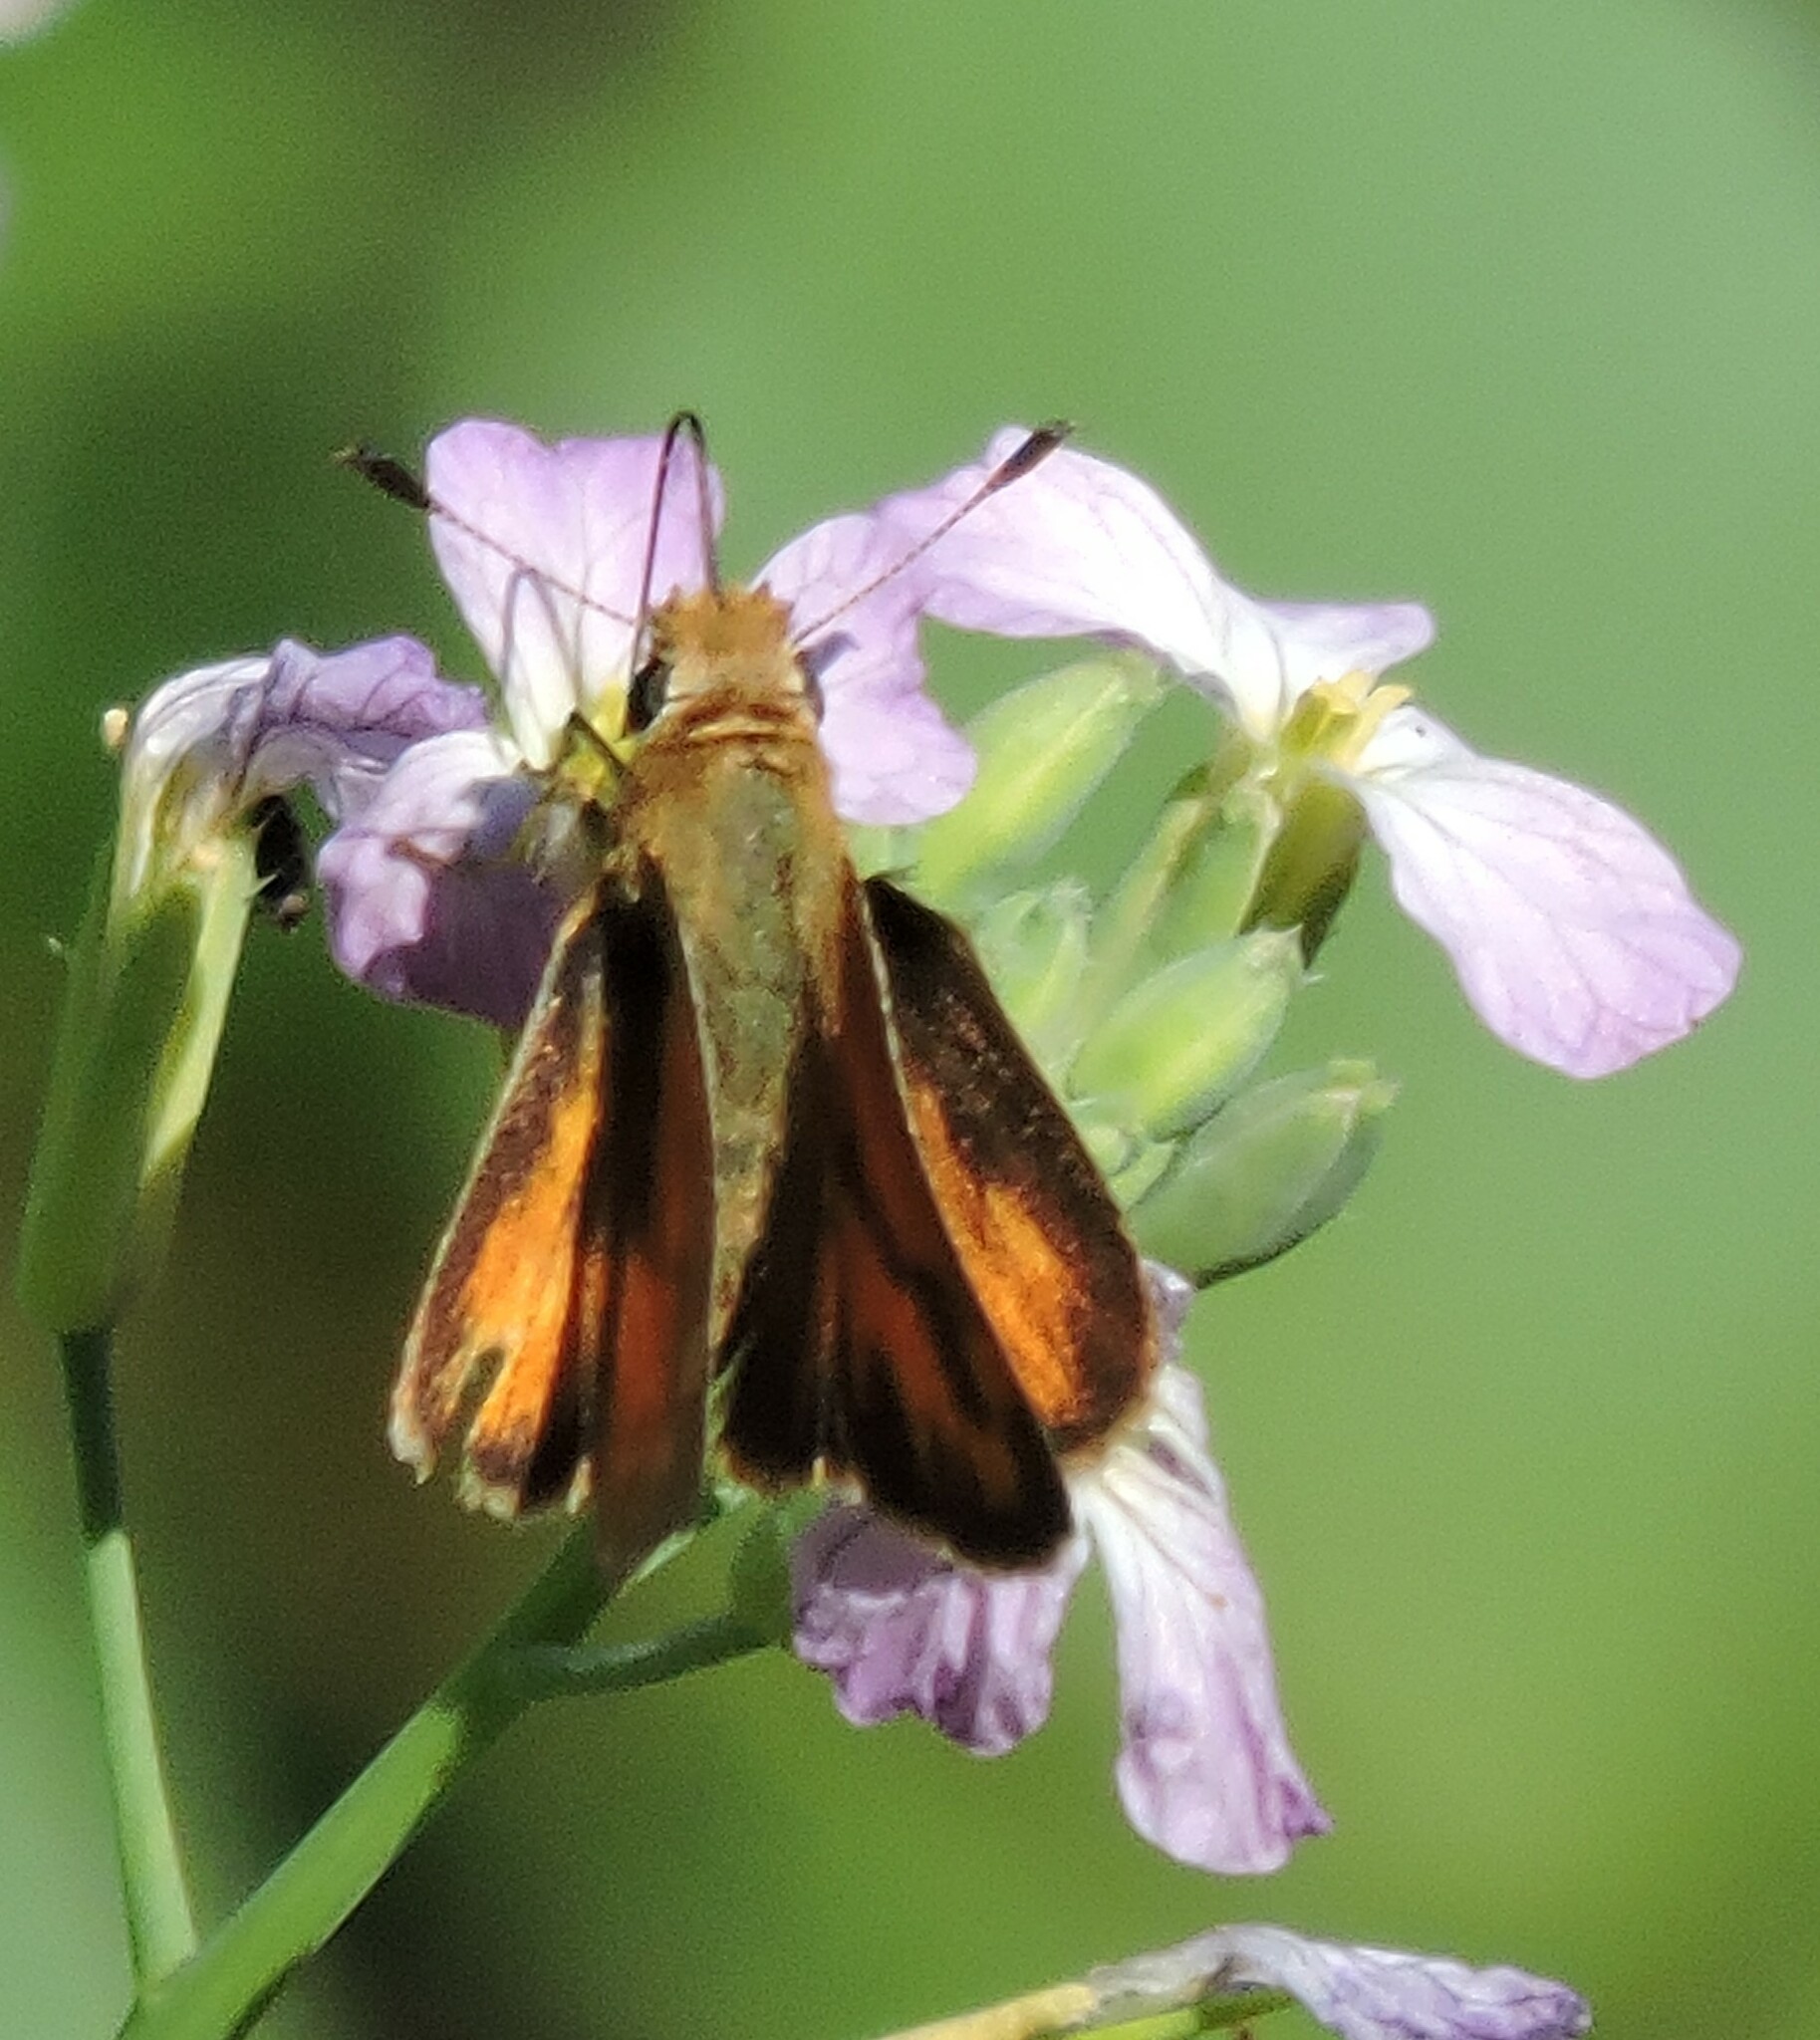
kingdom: Animalia
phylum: Arthropoda
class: Insecta
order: Lepidoptera
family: Hesperiidae
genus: Ochlodes
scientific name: Ochlodes sylvanoides
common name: Woodland skipper
